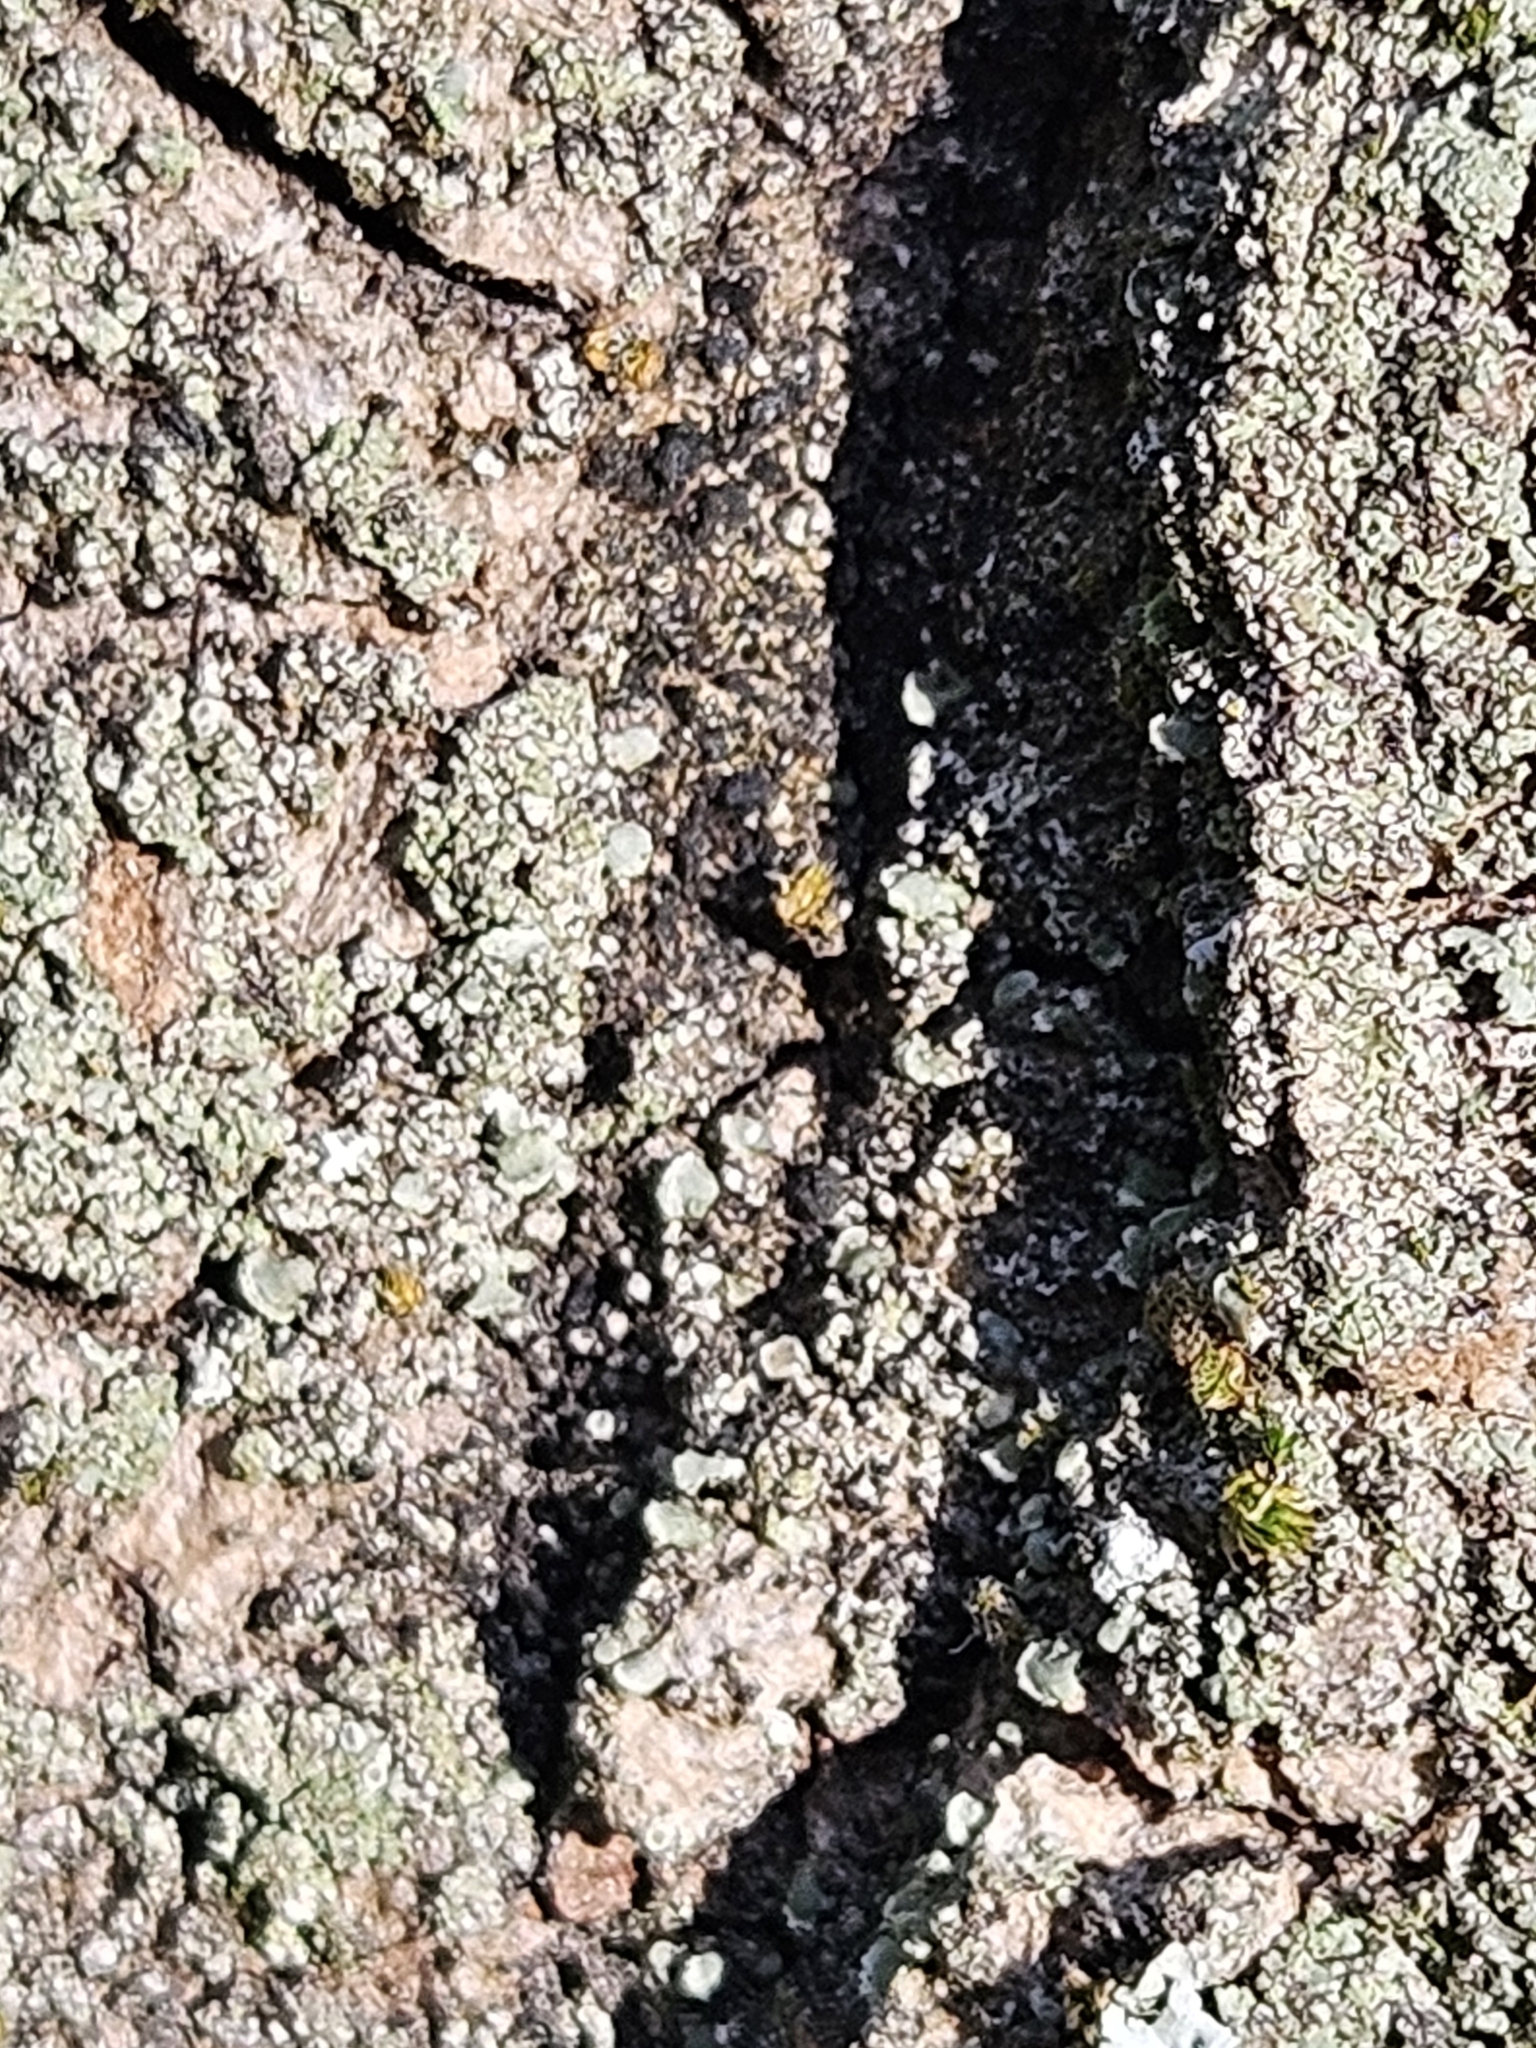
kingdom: Fungi
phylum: Ascomycota
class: Lecanoromycetes
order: Umbilicariales
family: Ophioparmaceae
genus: Hypocenomyce
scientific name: Hypocenomyce stoechadiana
